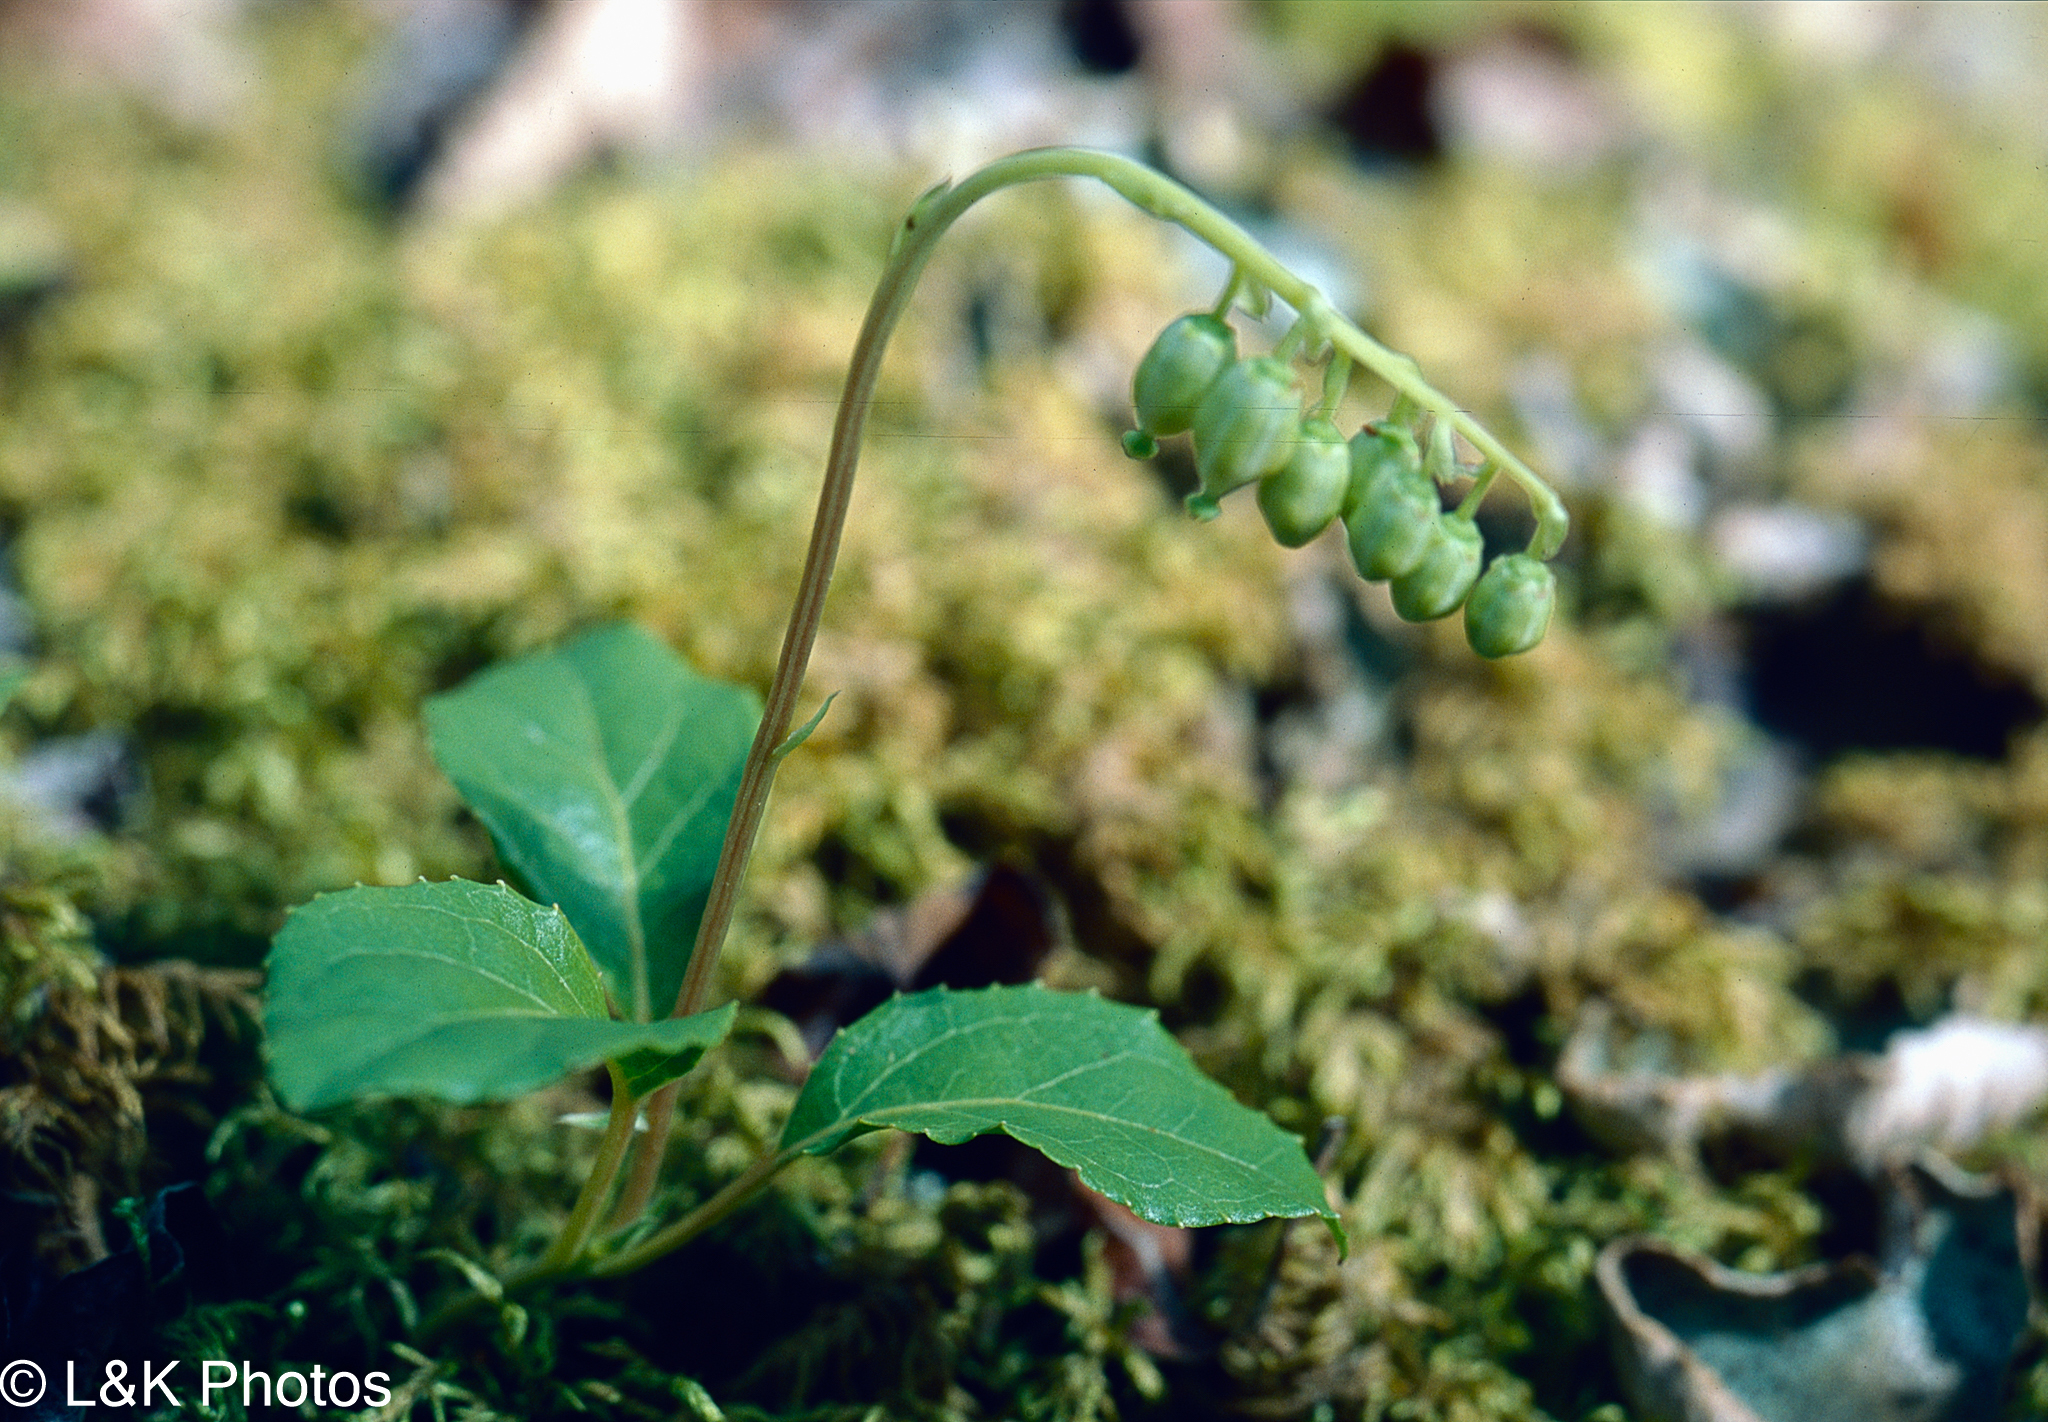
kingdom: Plantae
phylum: Tracheophyta
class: Magnoliopsida
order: Ericales
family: Ericaceae
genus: Orthilia
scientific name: Orthilia secunda
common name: One-sided orthilia
